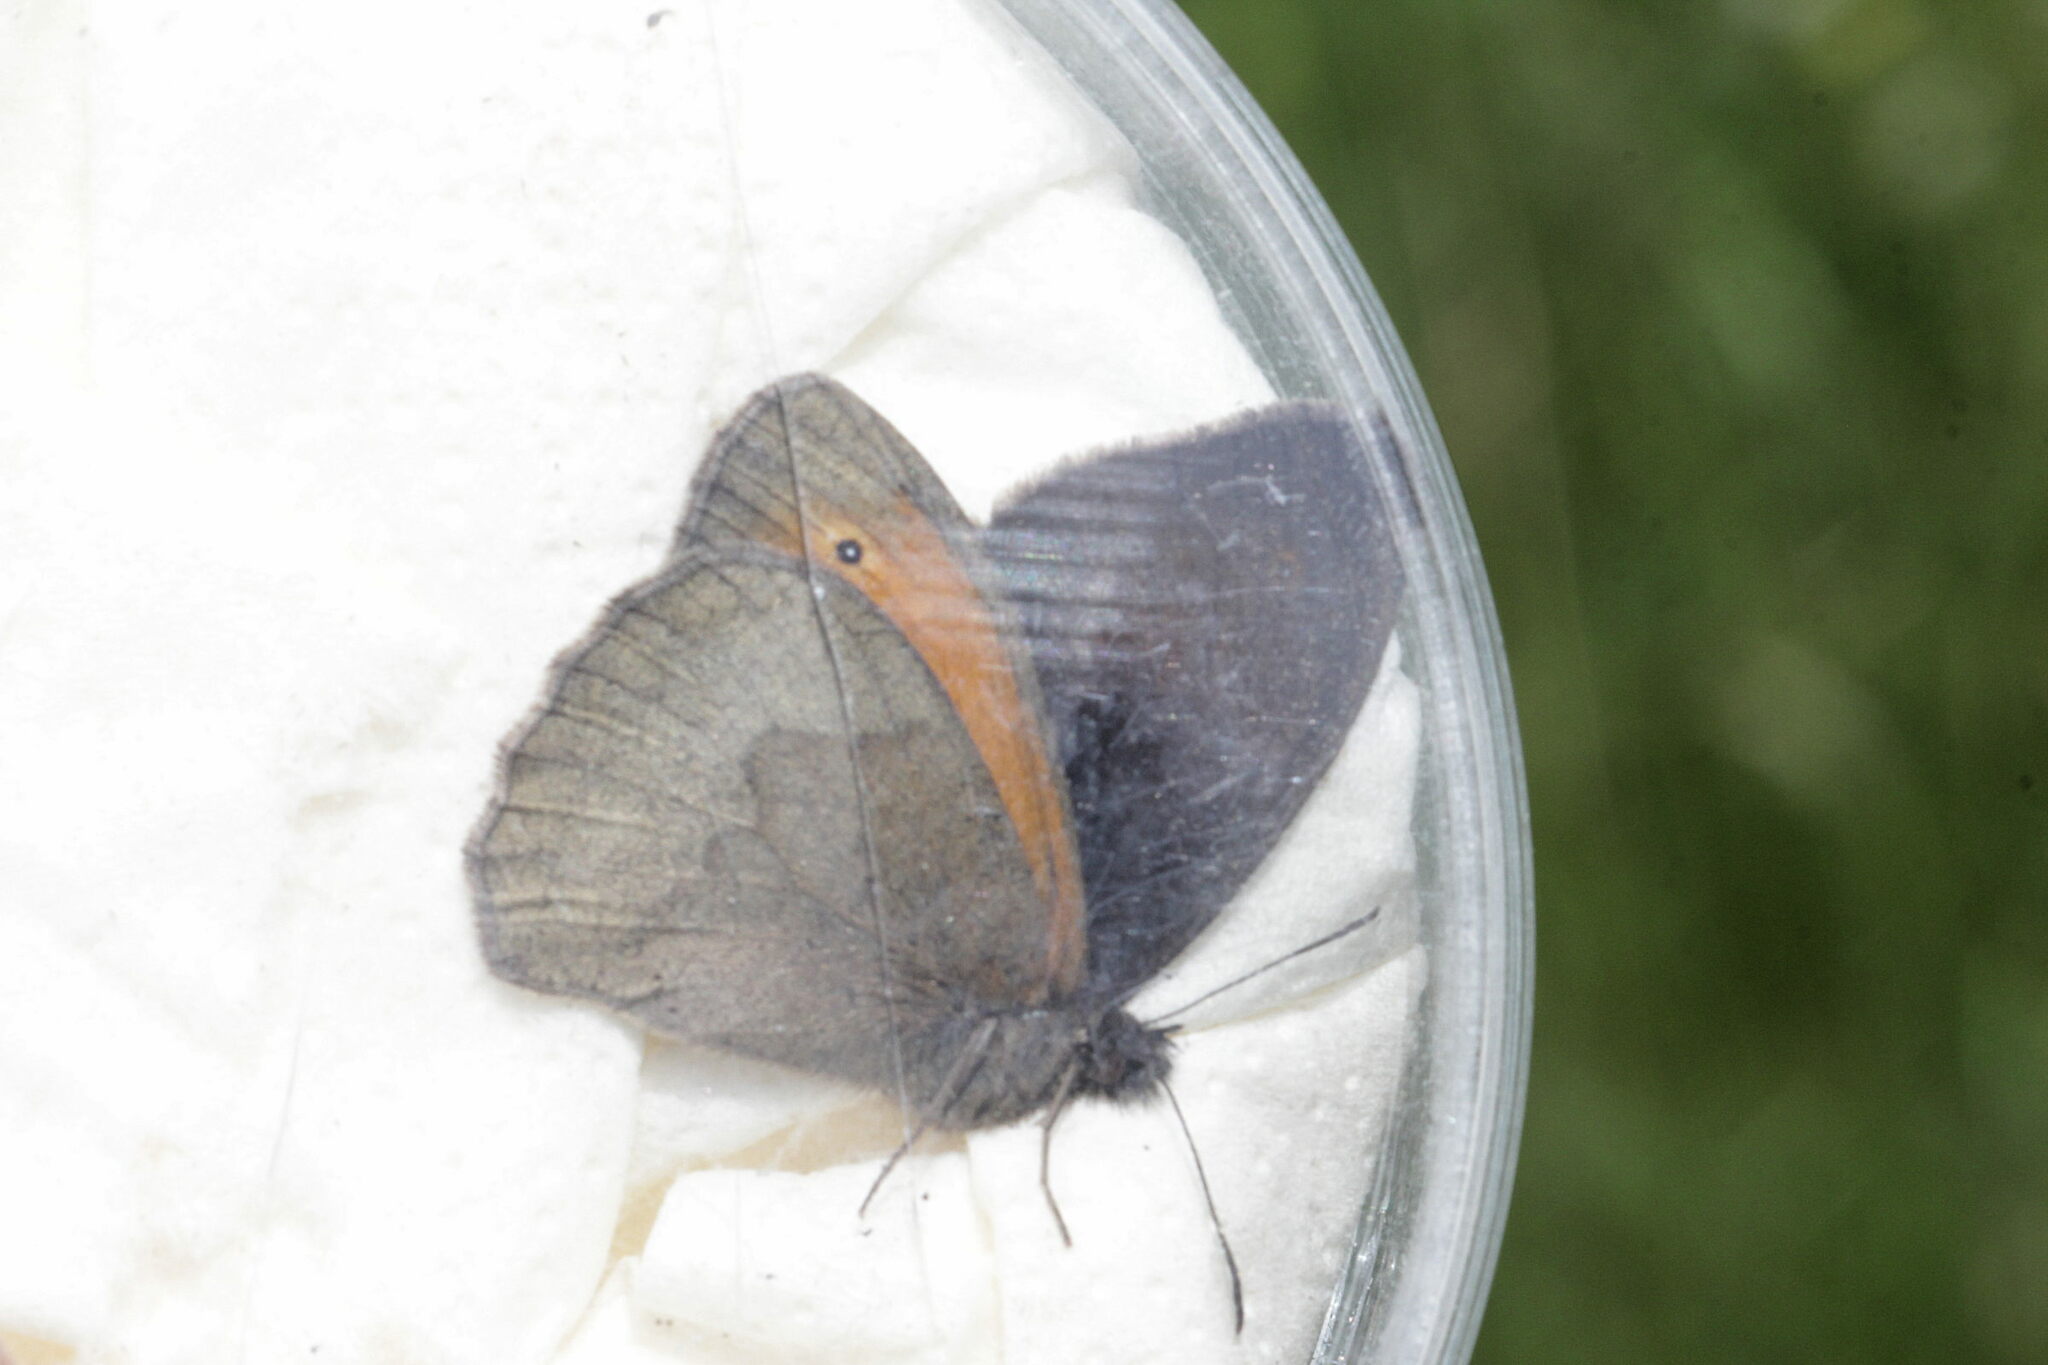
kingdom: Animalia
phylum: Arthropoda
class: Insecta
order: Lepidoptera
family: Nymphalidae
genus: Maniola
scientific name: Maniola jurtina
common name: Meadow brown
